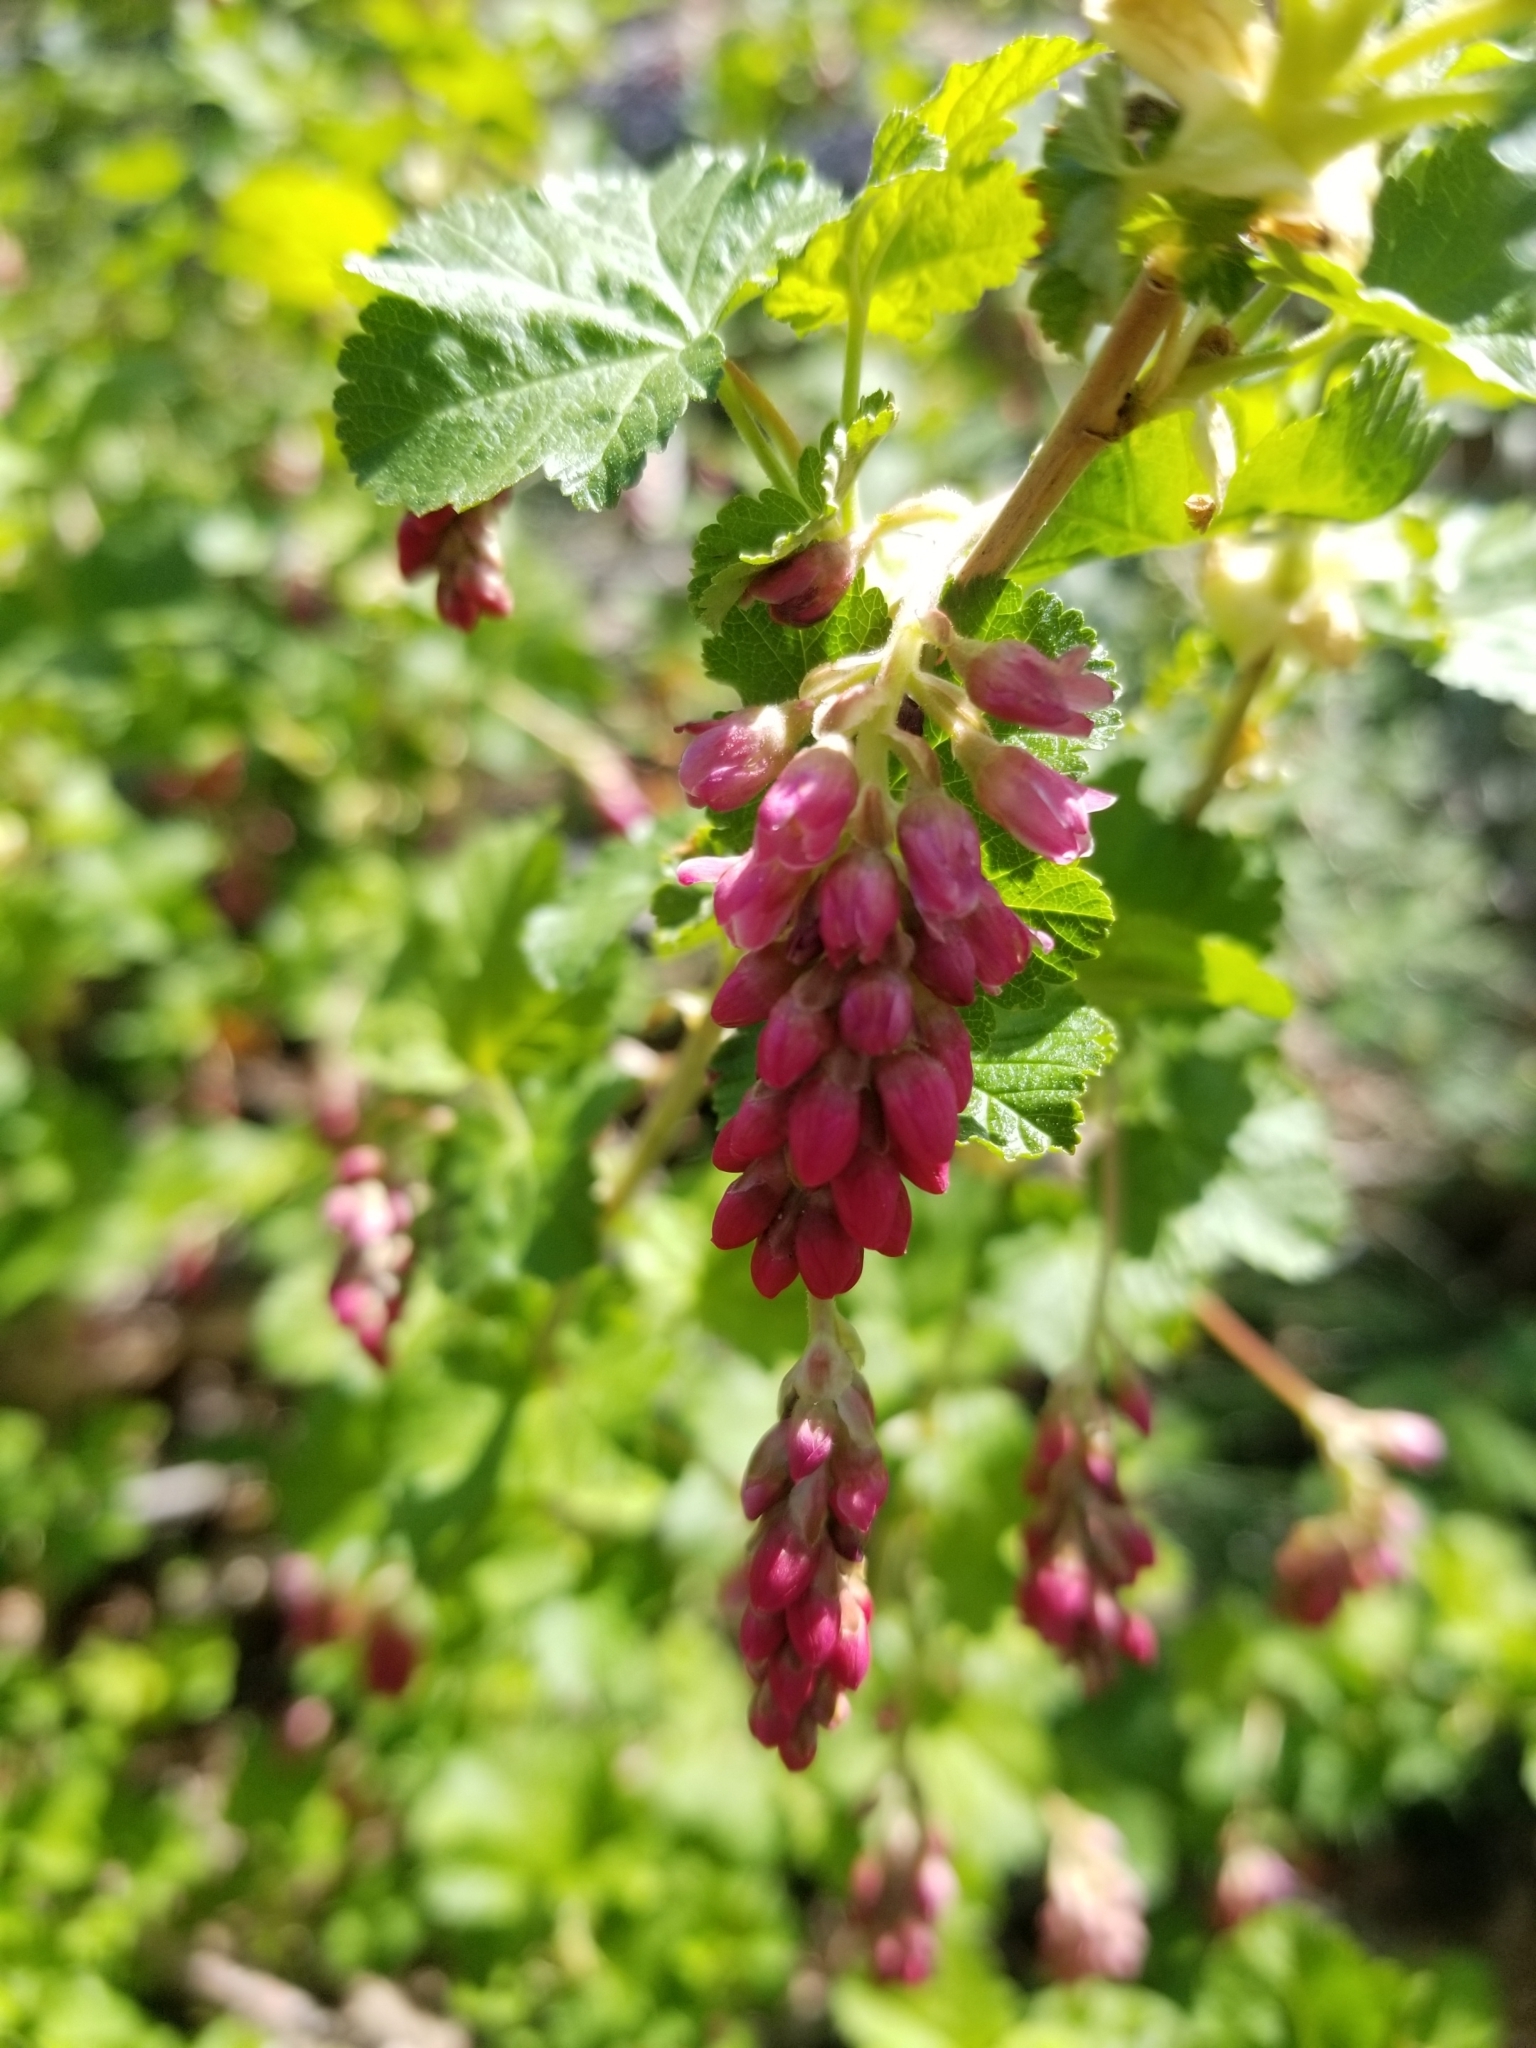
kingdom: Plantae
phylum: Tracheophyta
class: Magnoliopsida
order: Saxifragales
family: Grossulariaceae
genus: Ribes
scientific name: Ribes nevadense
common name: Mountain pink currant
